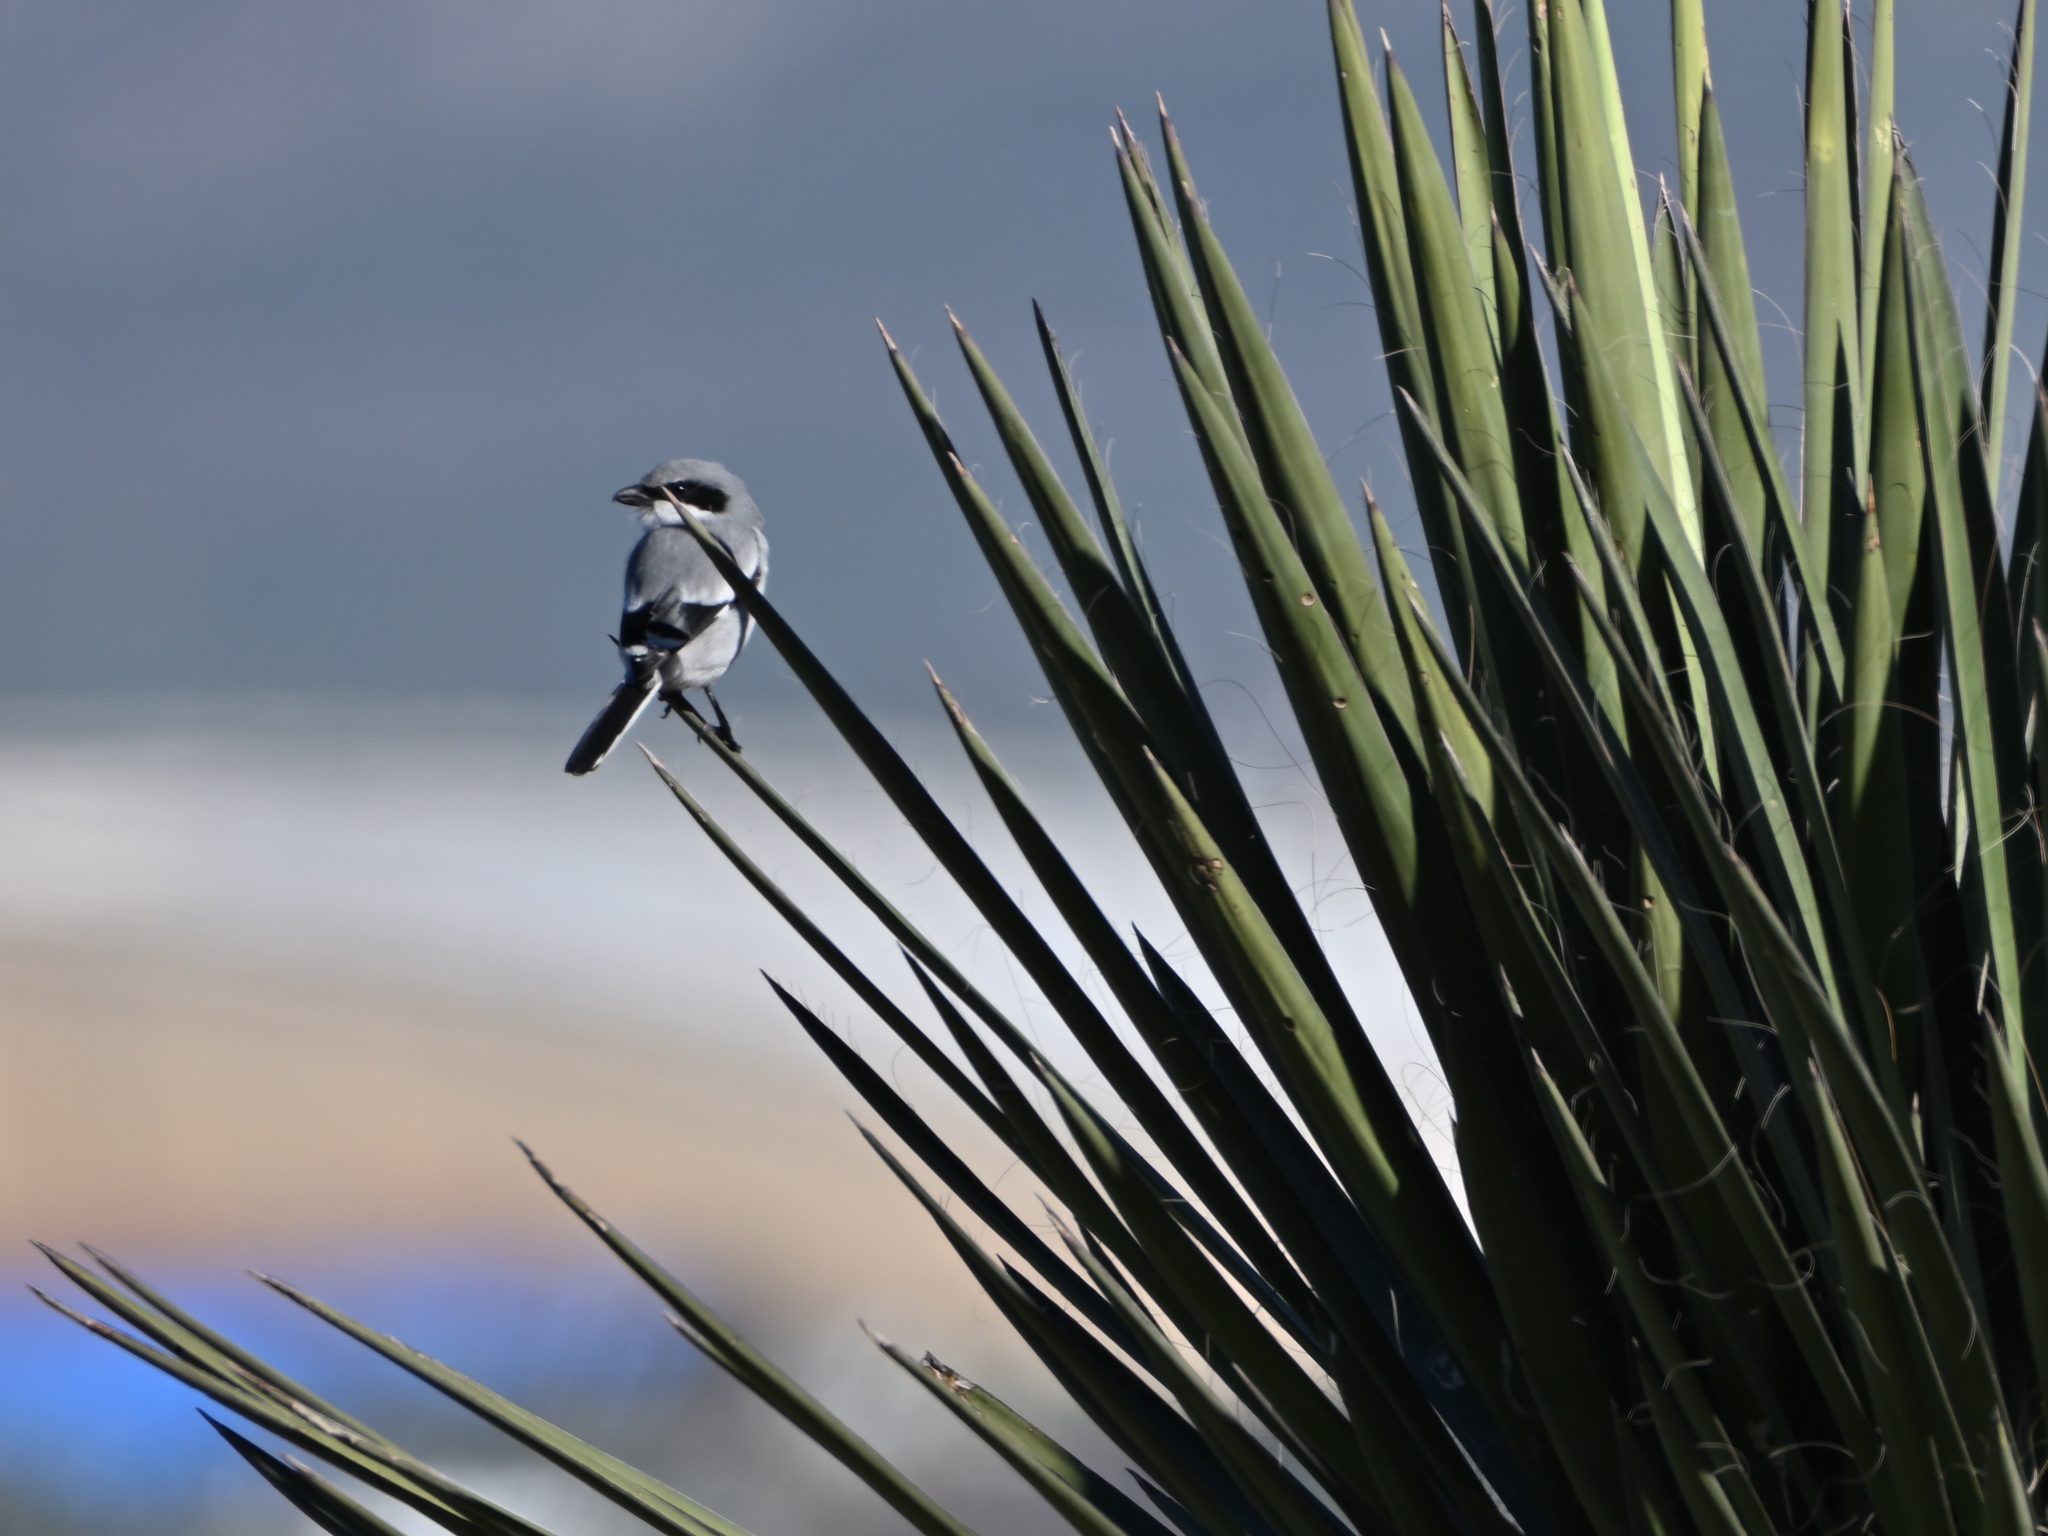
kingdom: Animalia
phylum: Chordata
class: Aves
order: Passeriformes
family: Laniidae
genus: Lanius
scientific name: Lanius ludovicianus
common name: Loggerhead shrike
